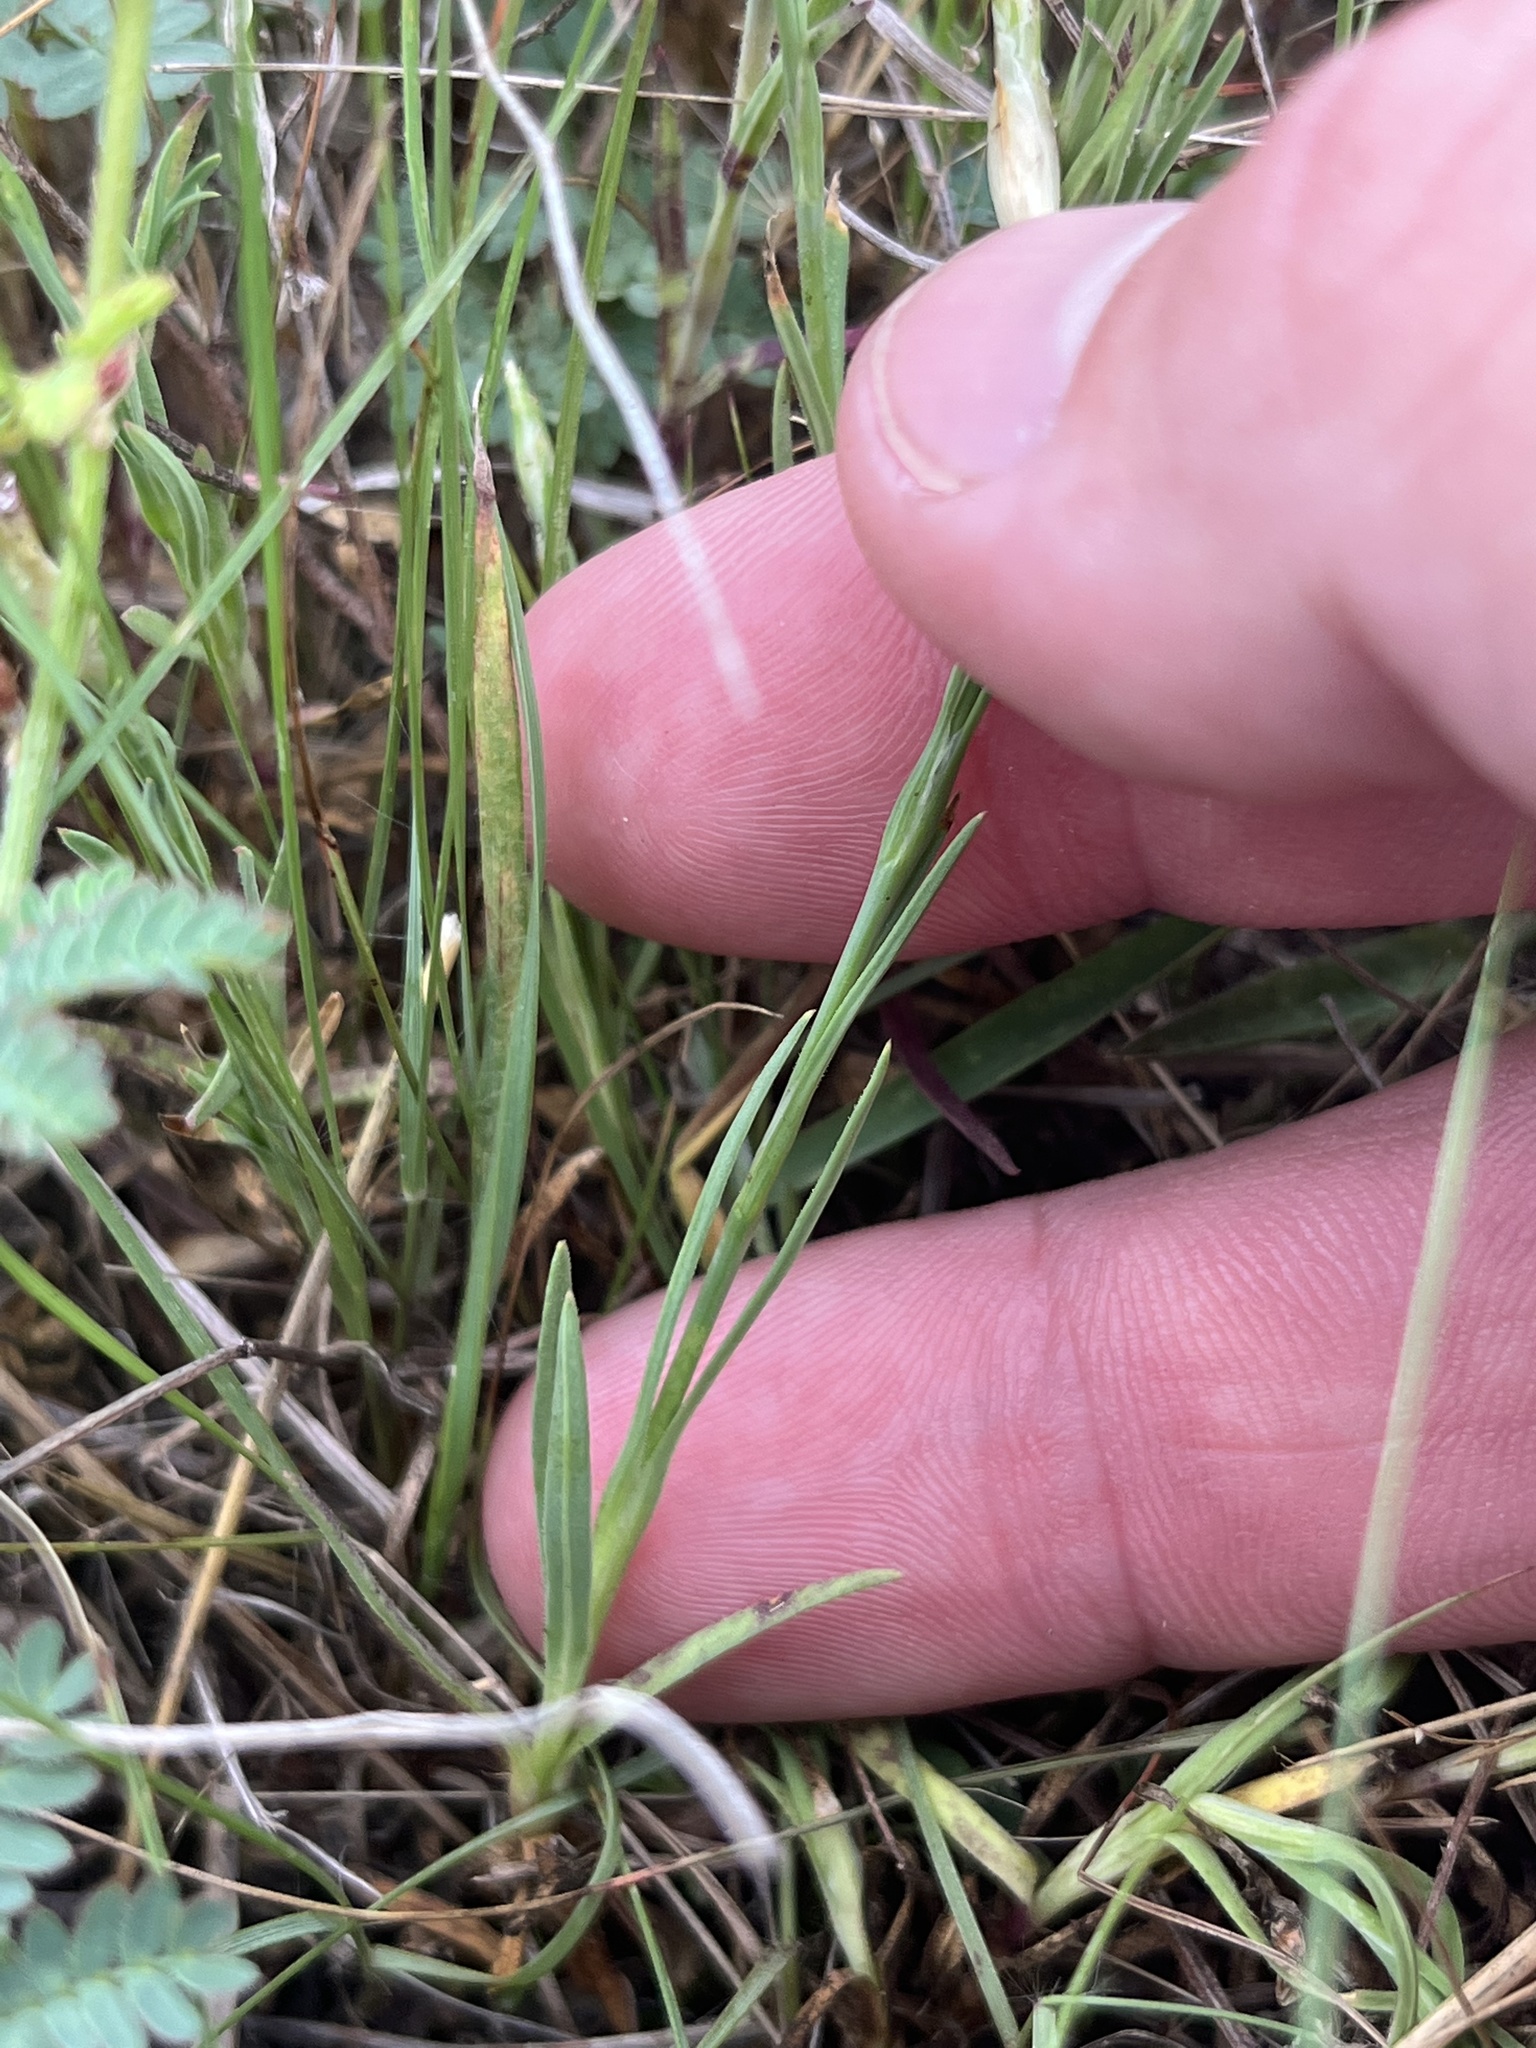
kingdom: Plantae
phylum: Tracheophyta
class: Magnoliopsida
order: Caryophyllales
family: Caryophyllaceae
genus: Petrorhagia
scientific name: Petrorhagia dubia
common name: Hairypink
